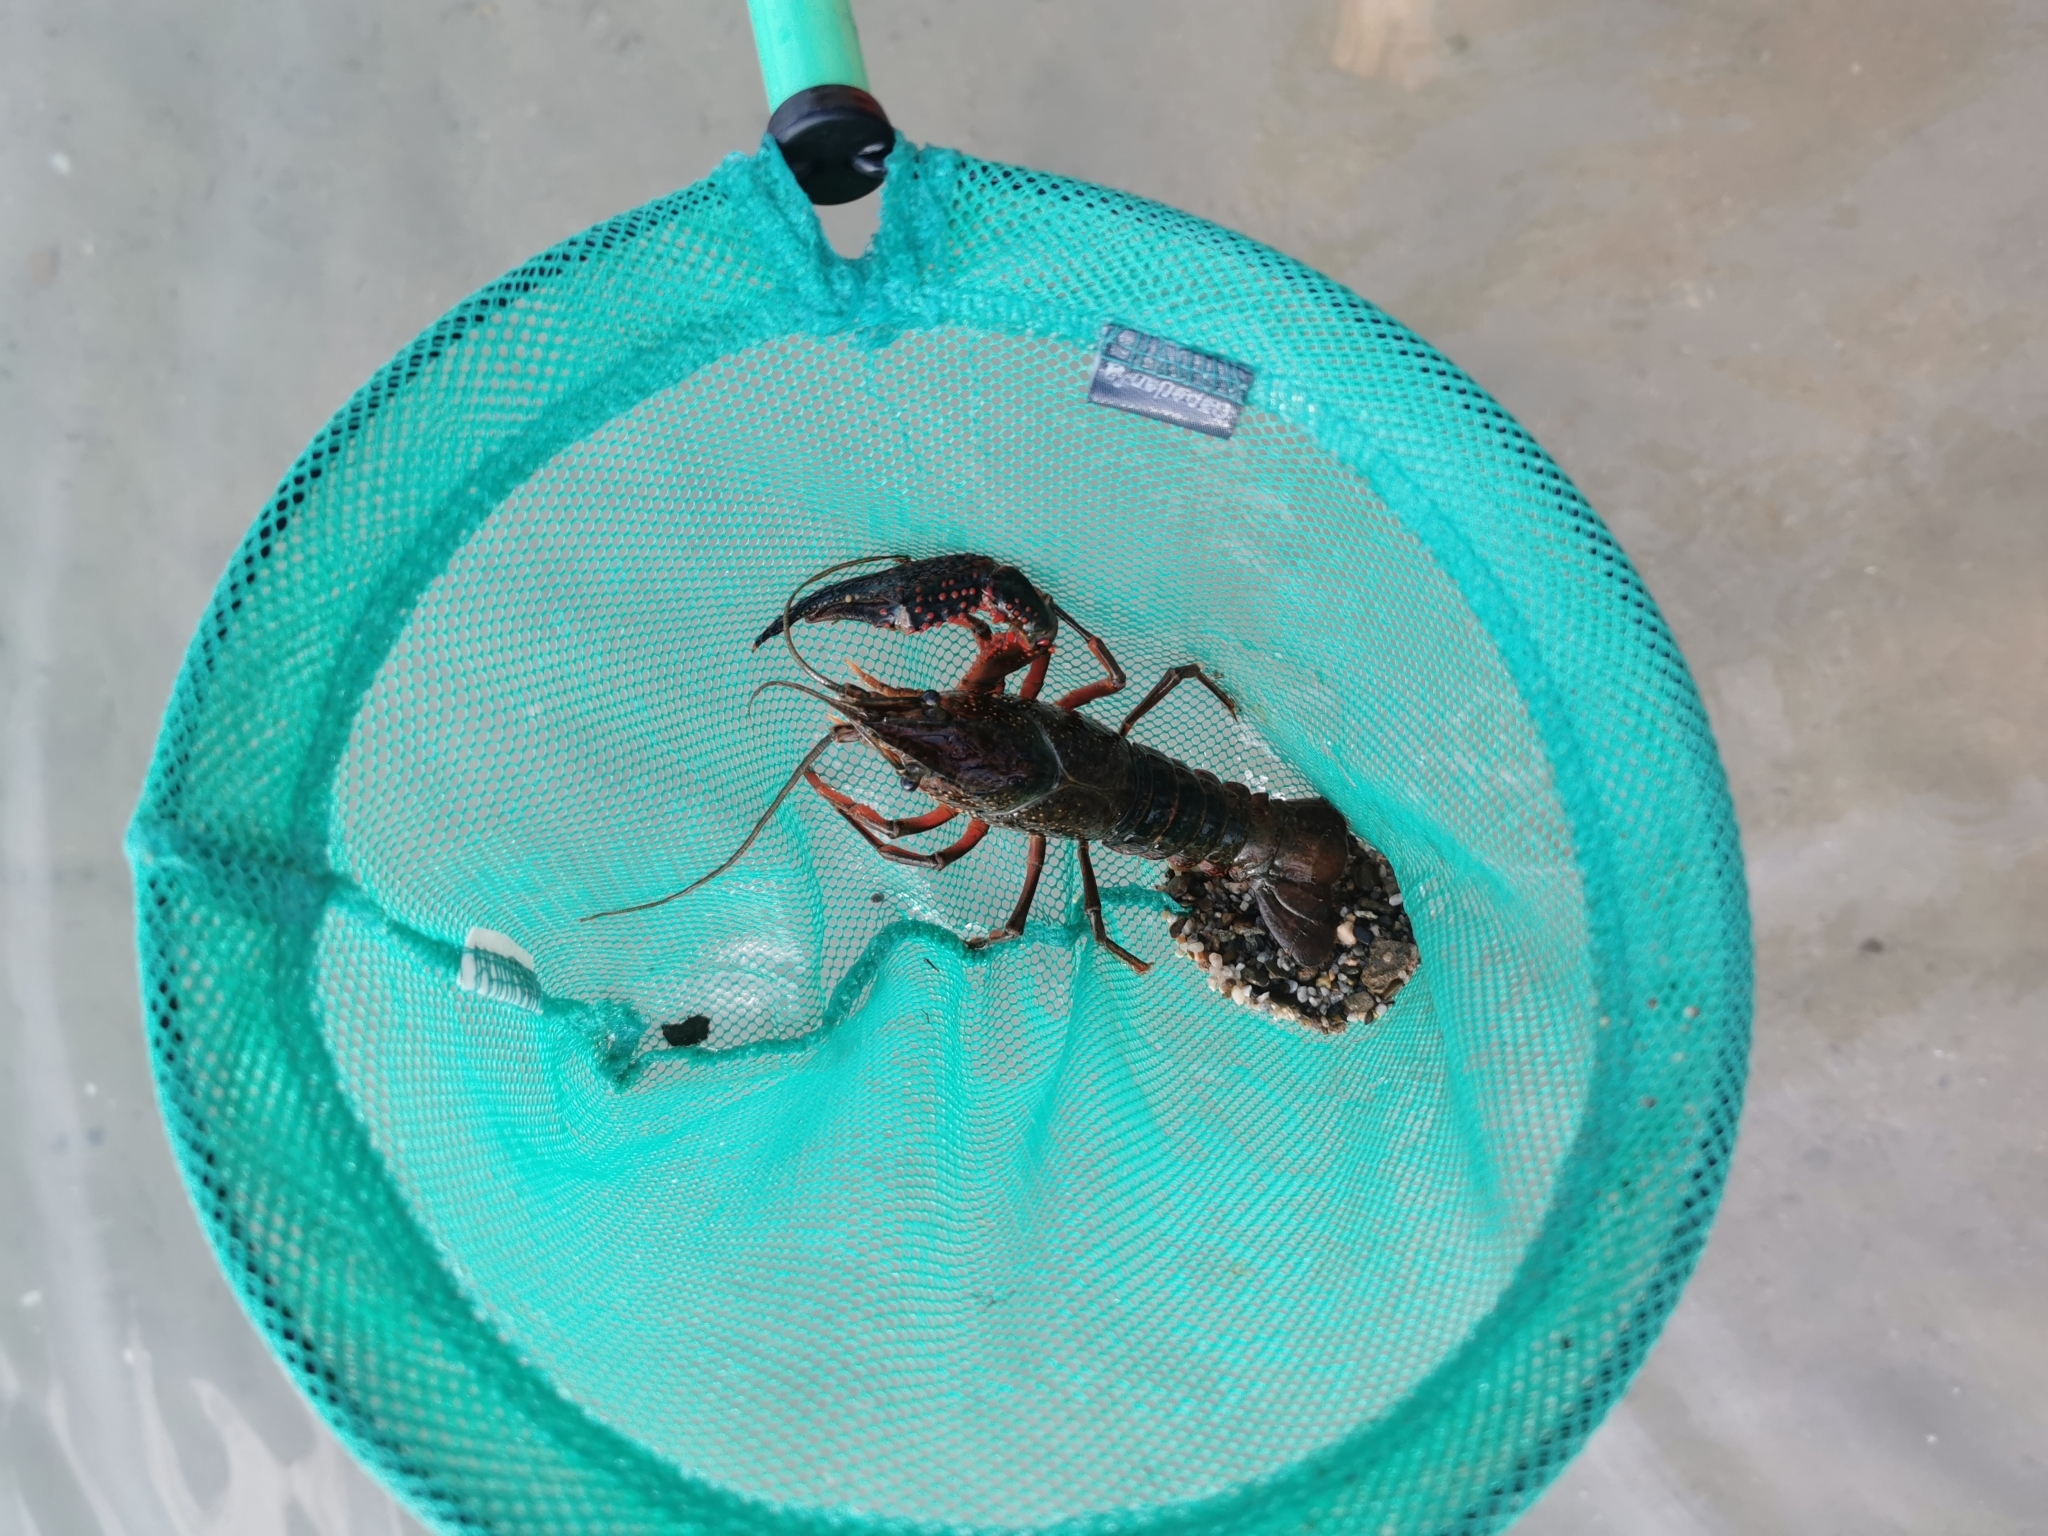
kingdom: Animalia
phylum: Arthropoda
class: Malacostraca
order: Decapoda
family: Cambaridae
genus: Procambarus
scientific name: Procambarus clarkii
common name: Red swamp crayfish
